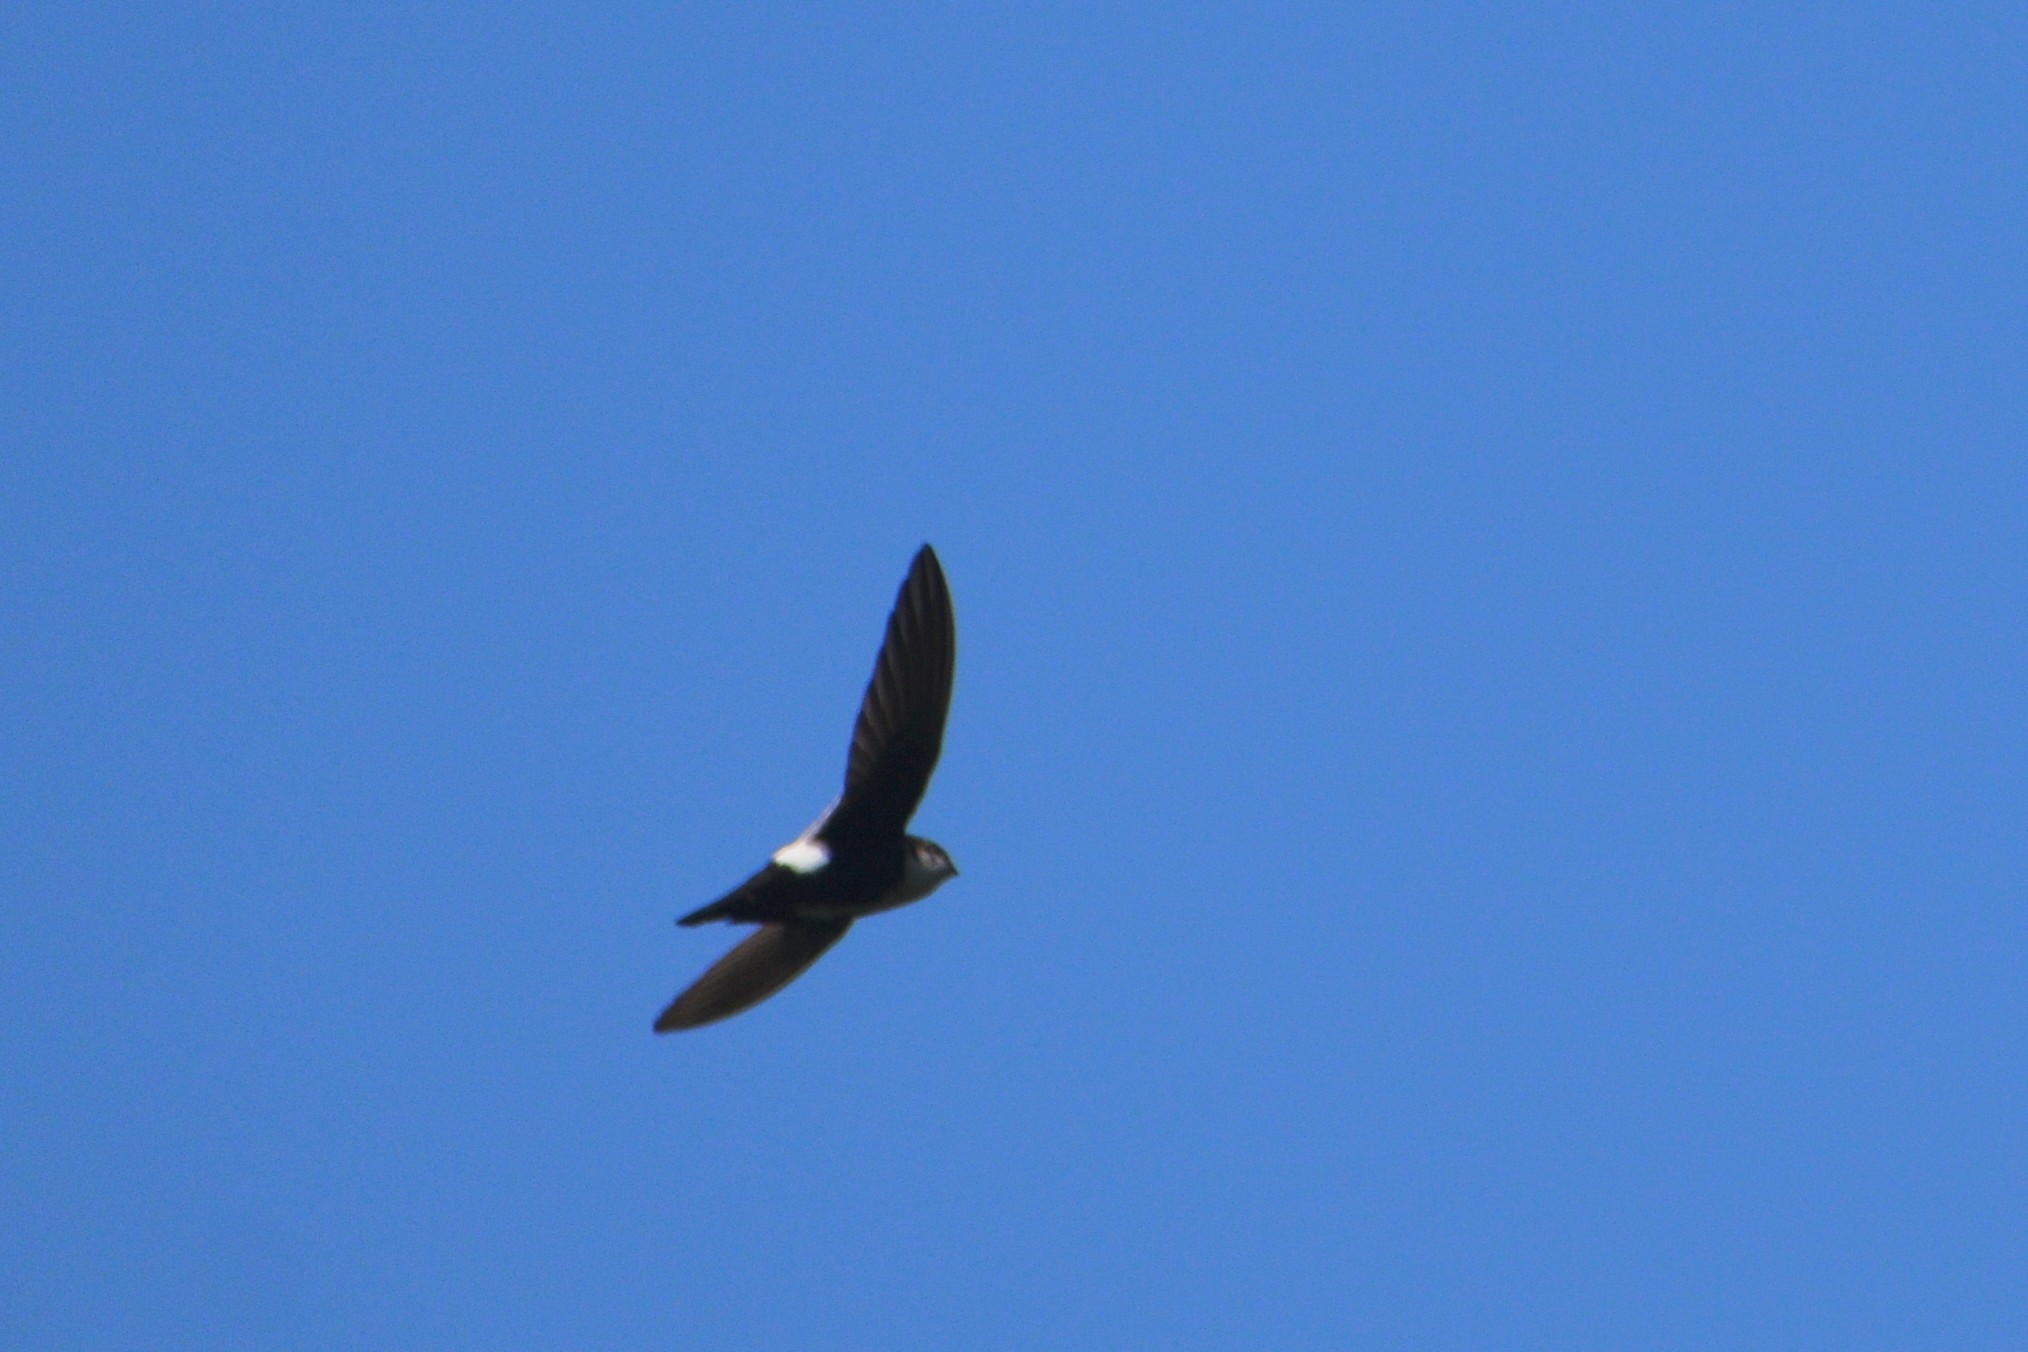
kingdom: Animalia
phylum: Chordata
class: Aves
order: Apodiformes
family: Apodidae
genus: Aeronautes
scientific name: Aeronautes saxatalis
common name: White-throated swift
